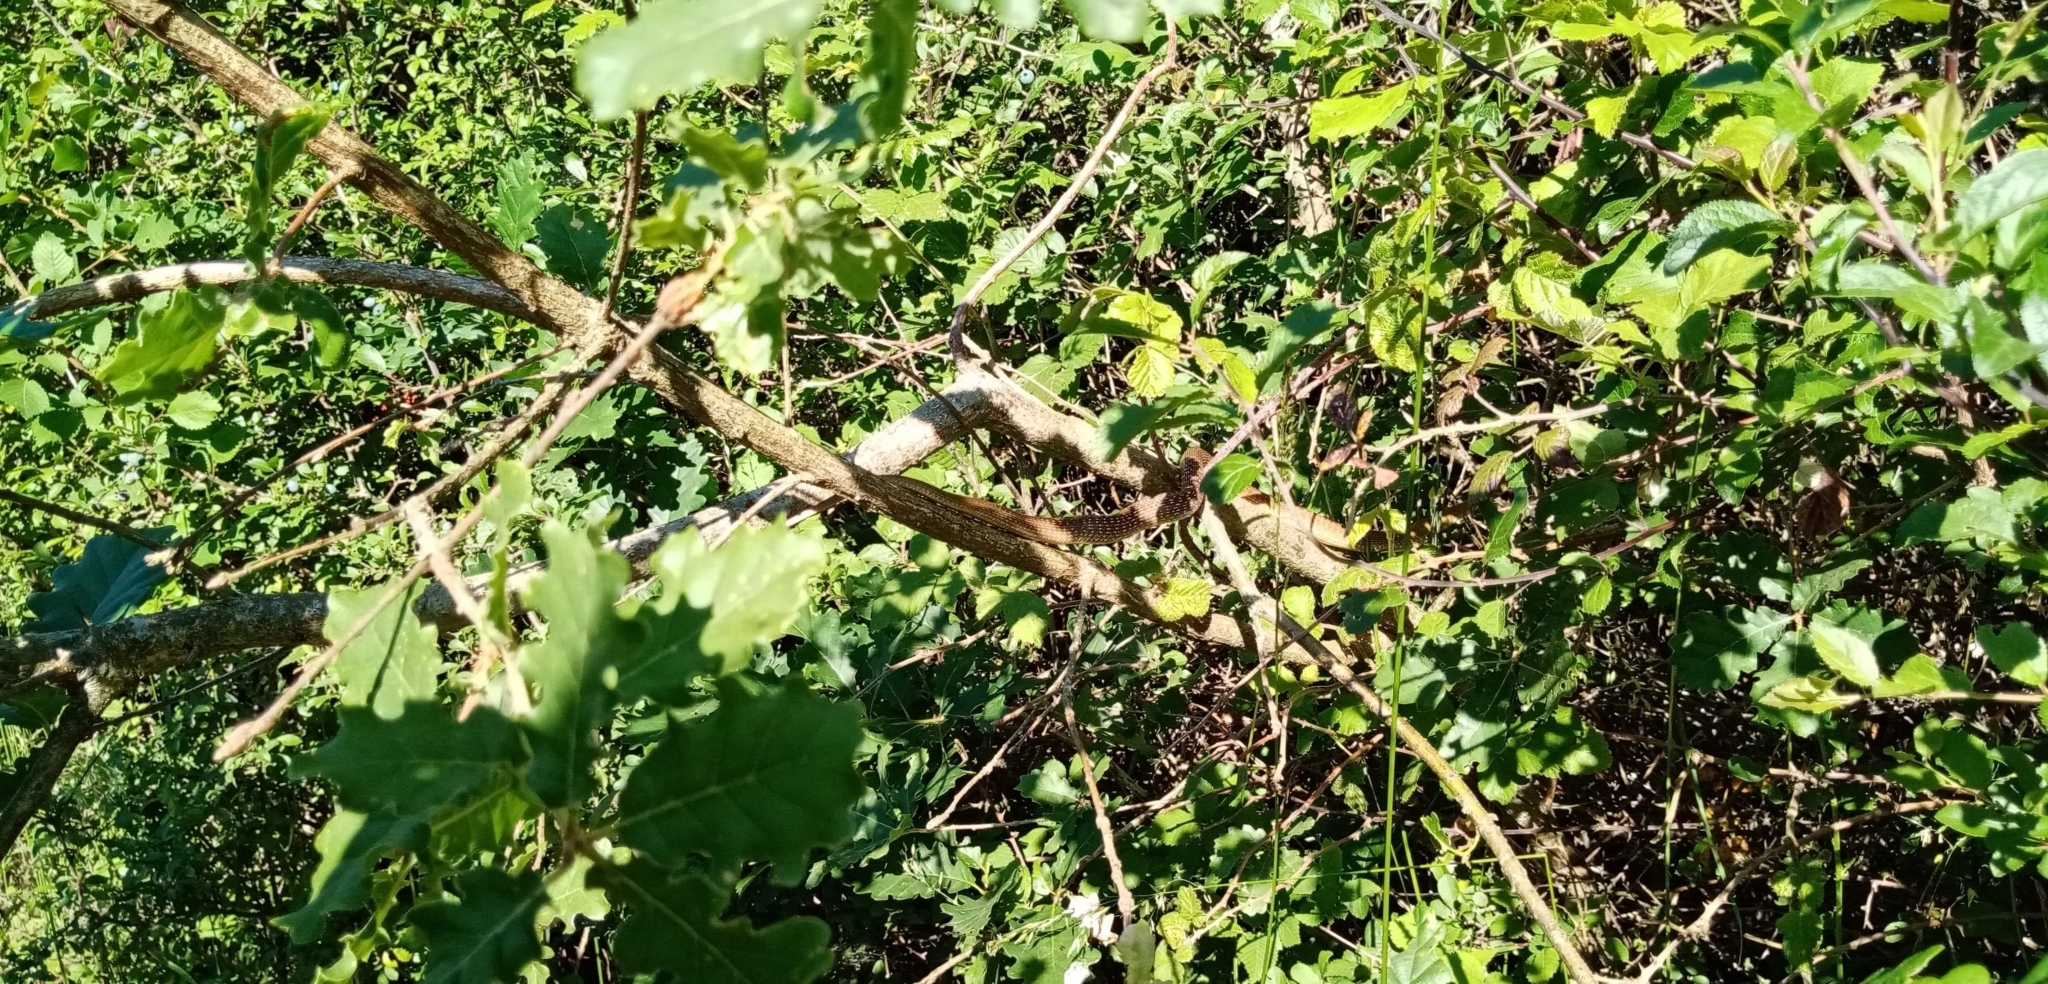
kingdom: Animalia
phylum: Chordata
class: Squamata
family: Colubridae
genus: Zamenis
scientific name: Zamenis longissimus
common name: Aesculapean snake
